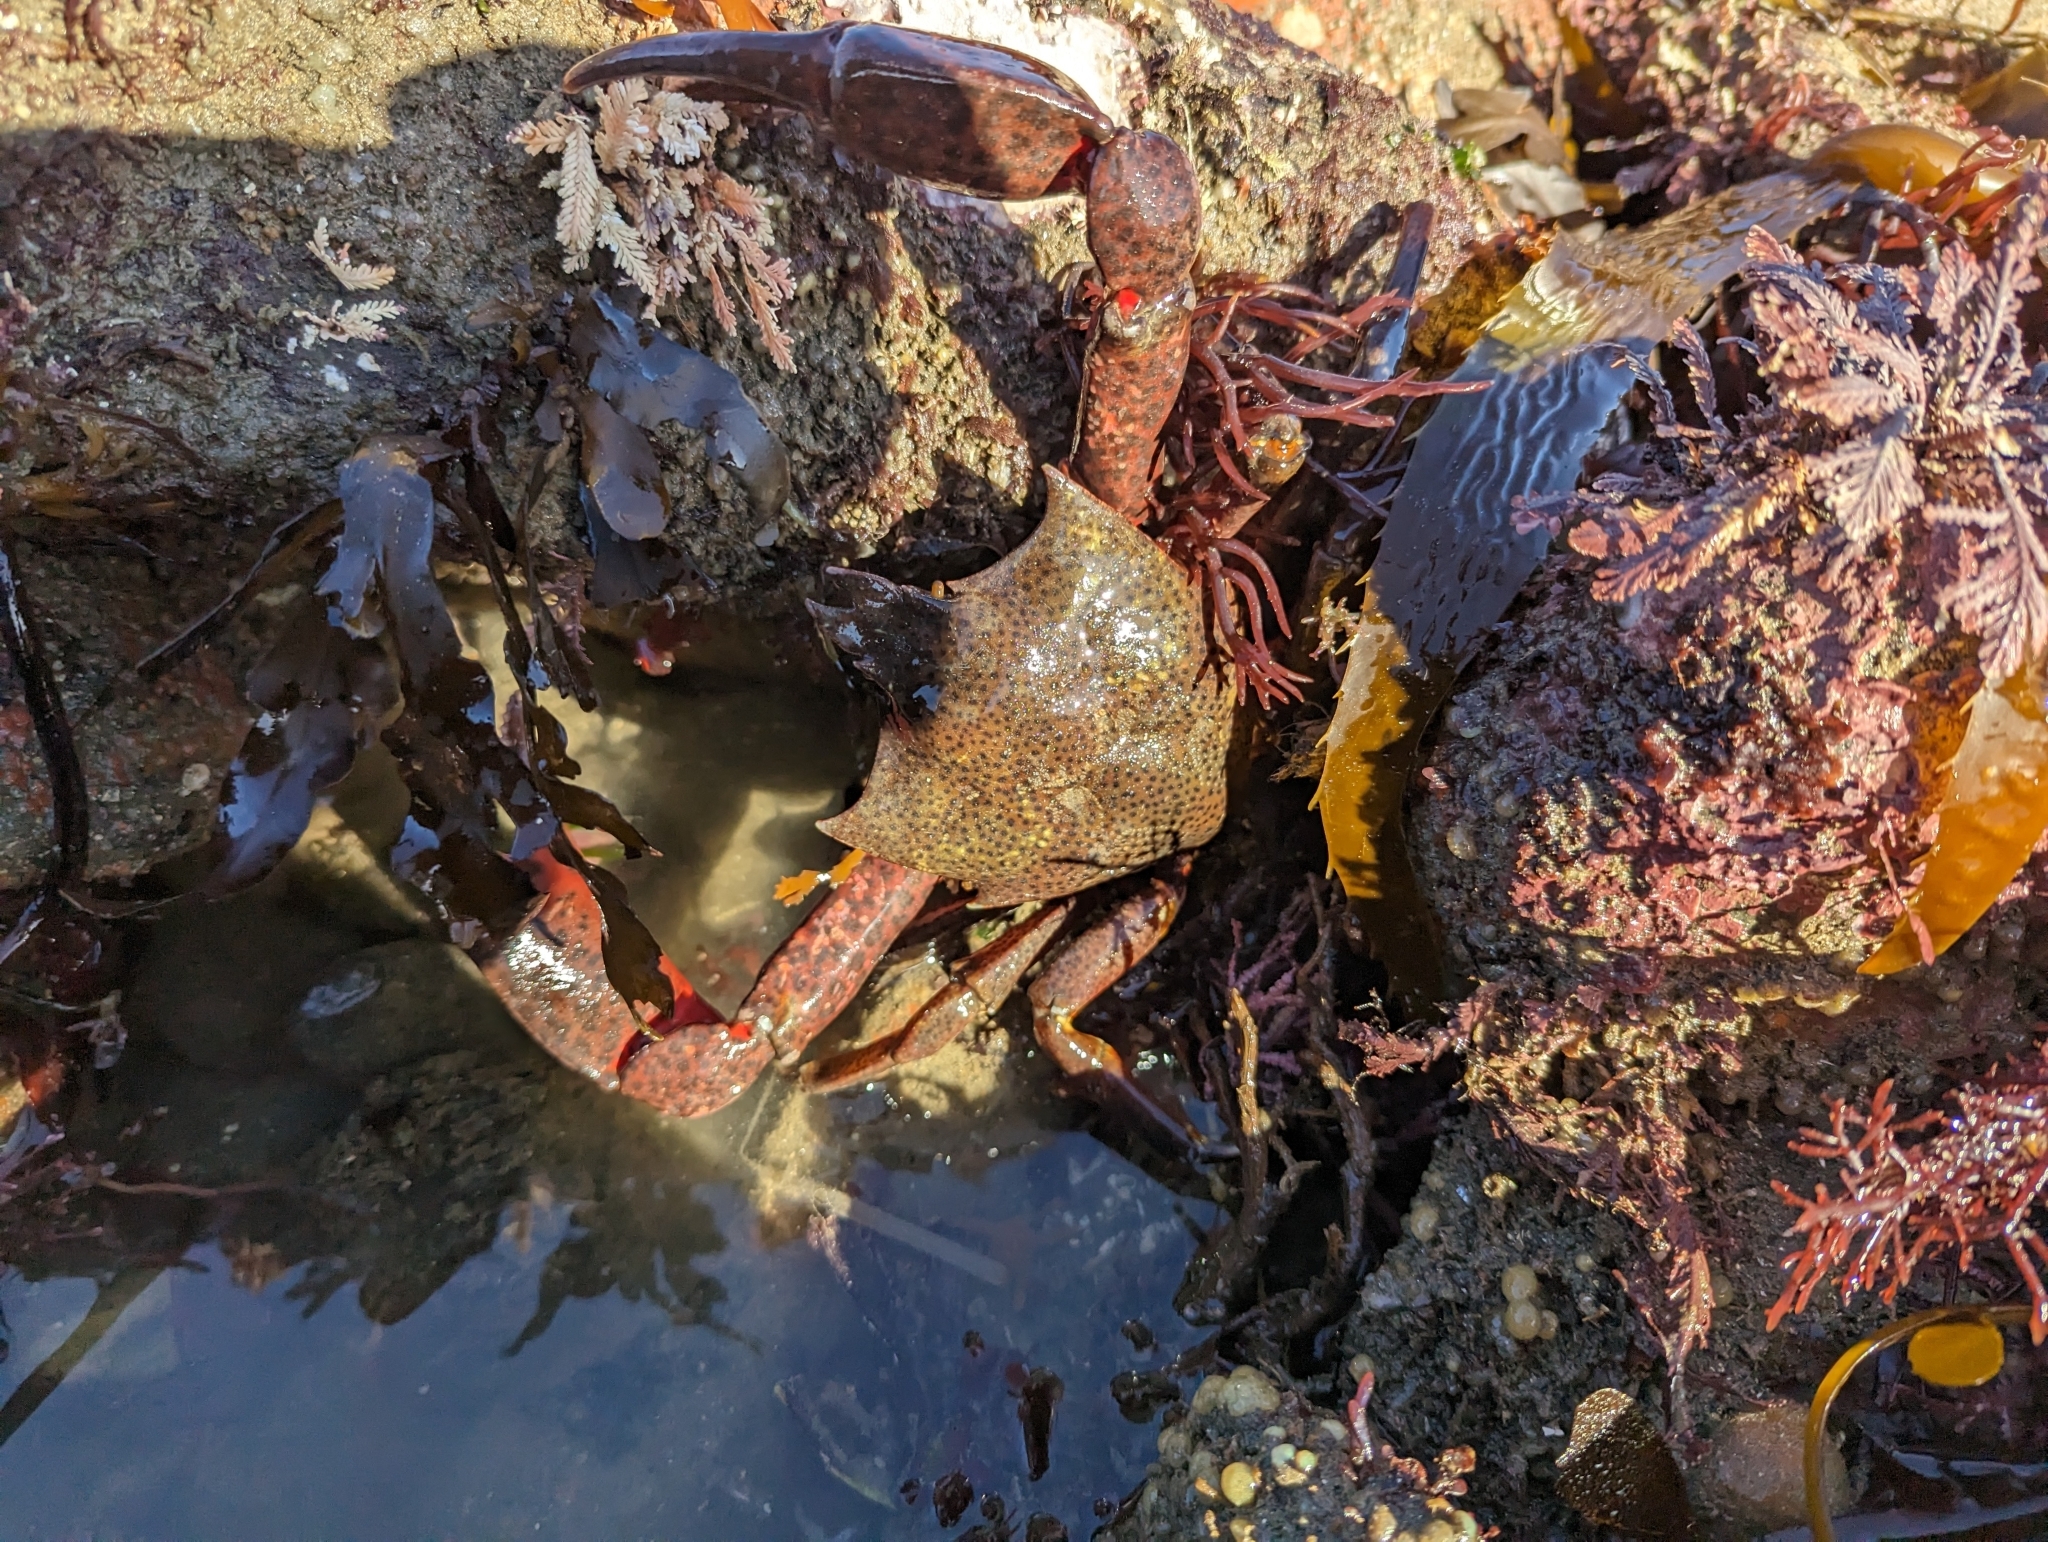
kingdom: Animalia
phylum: Arthropoda
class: Malacostraca
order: Decapoda
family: Epialtidae
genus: Pugettia
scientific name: Pugettia producta
